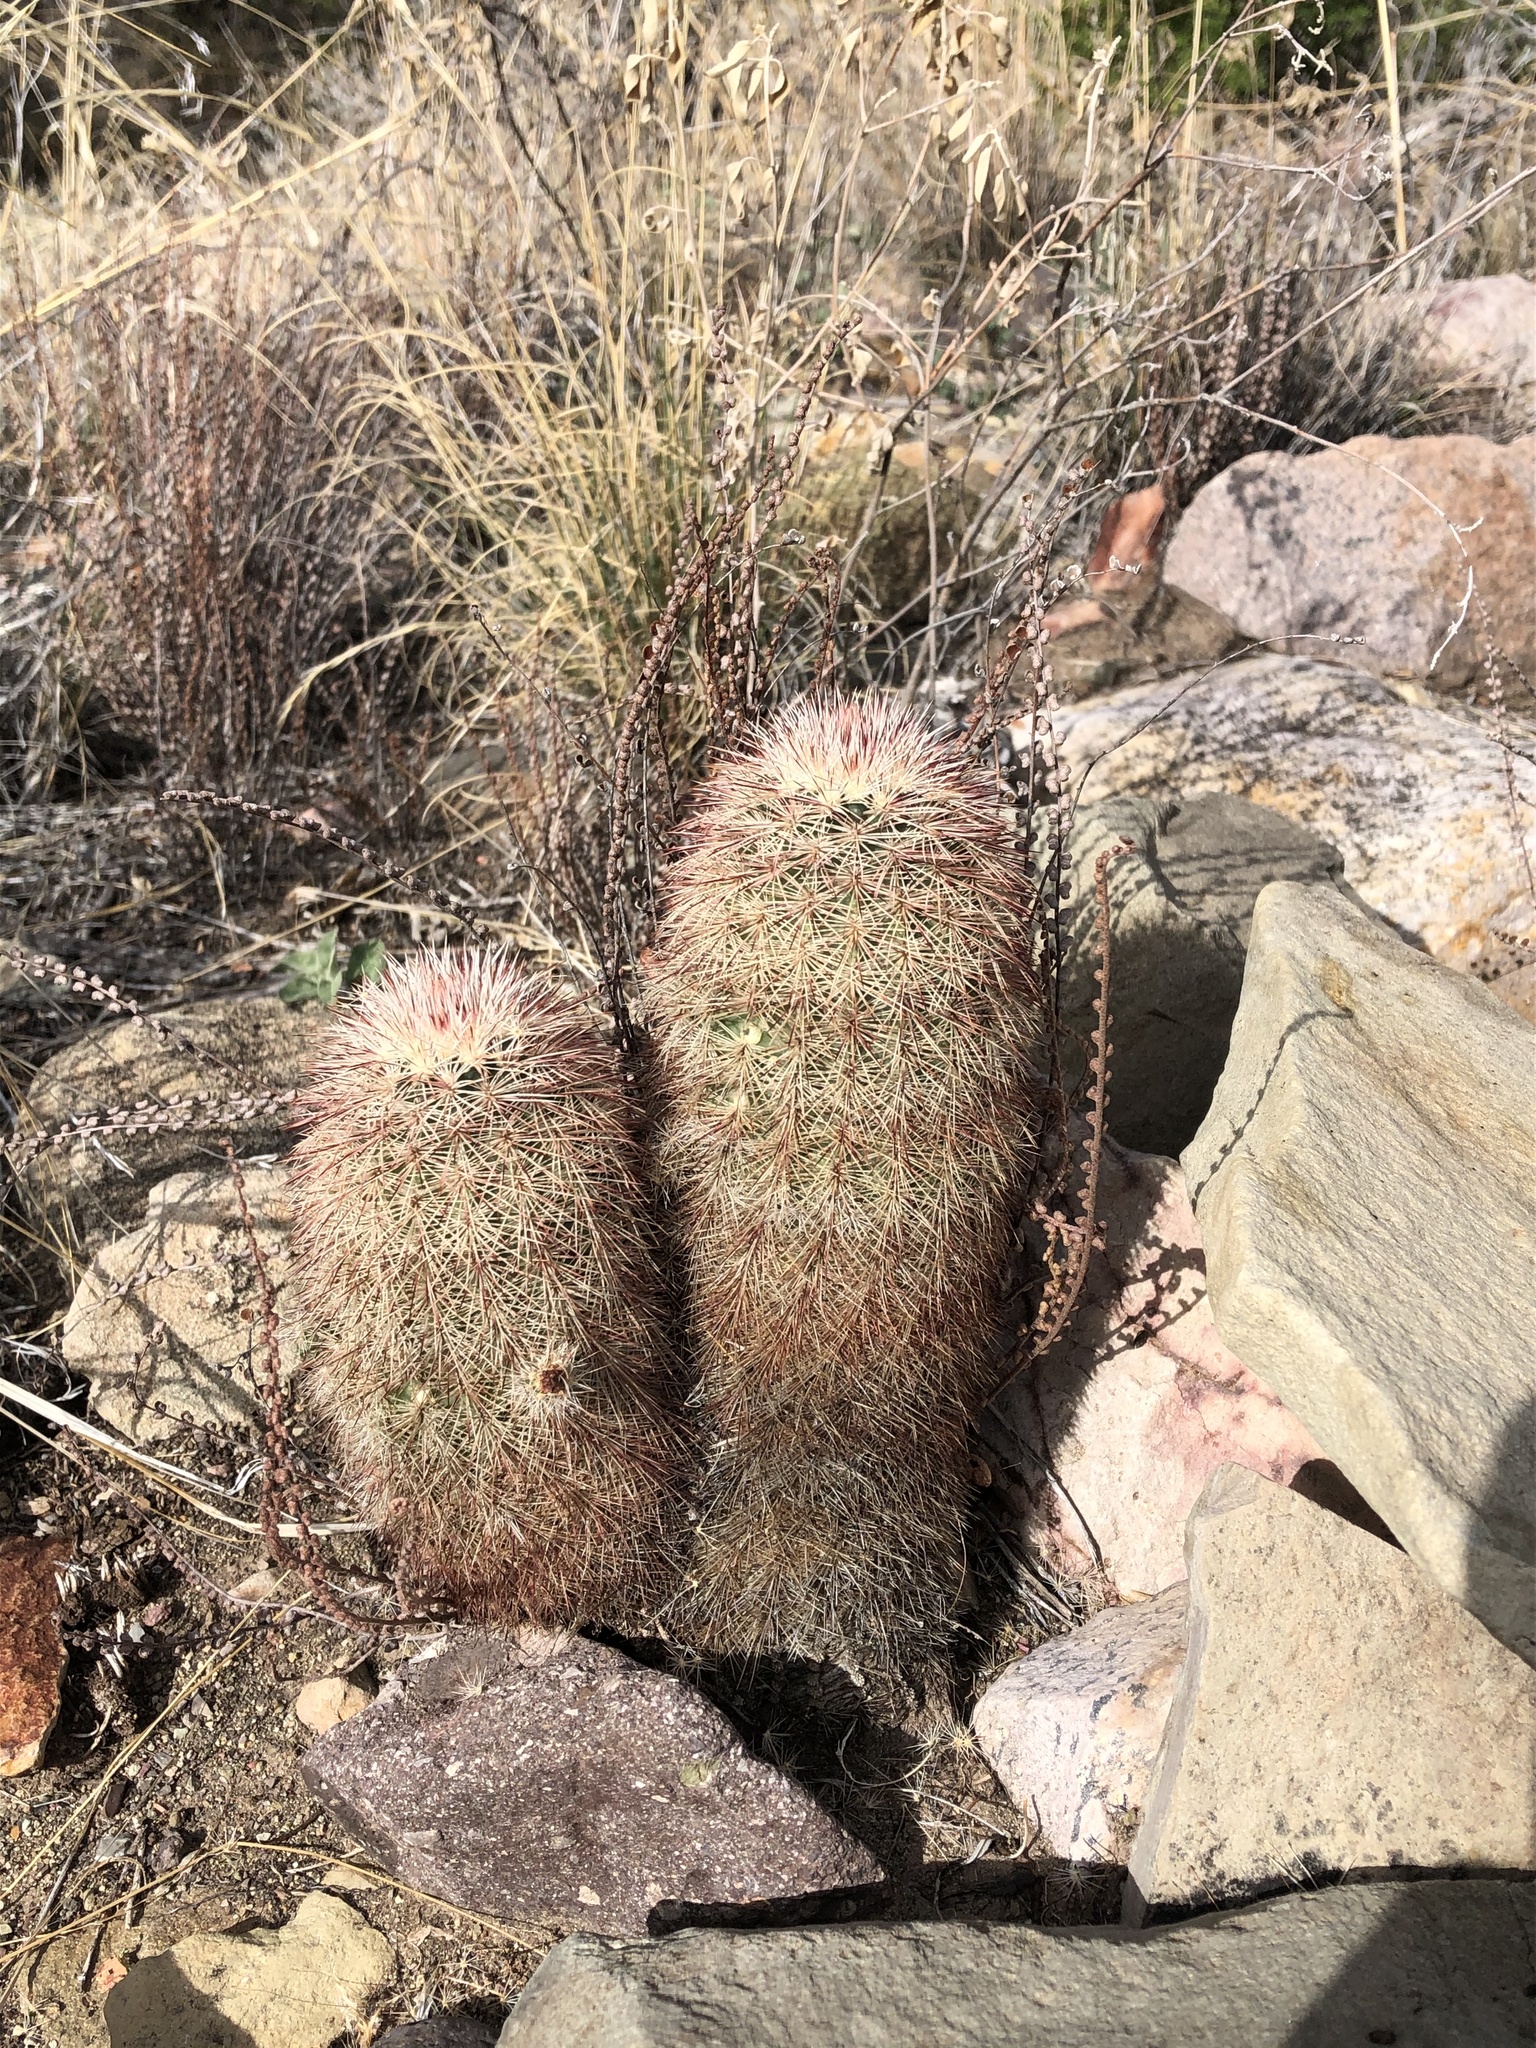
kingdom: Plantae
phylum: Tracheophyta
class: Magnoliopsida
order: Caryophyllales
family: Cactaceae
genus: Echinocereus
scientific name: Echinocereus russanthus
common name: Brownspine hedgehog cactus
